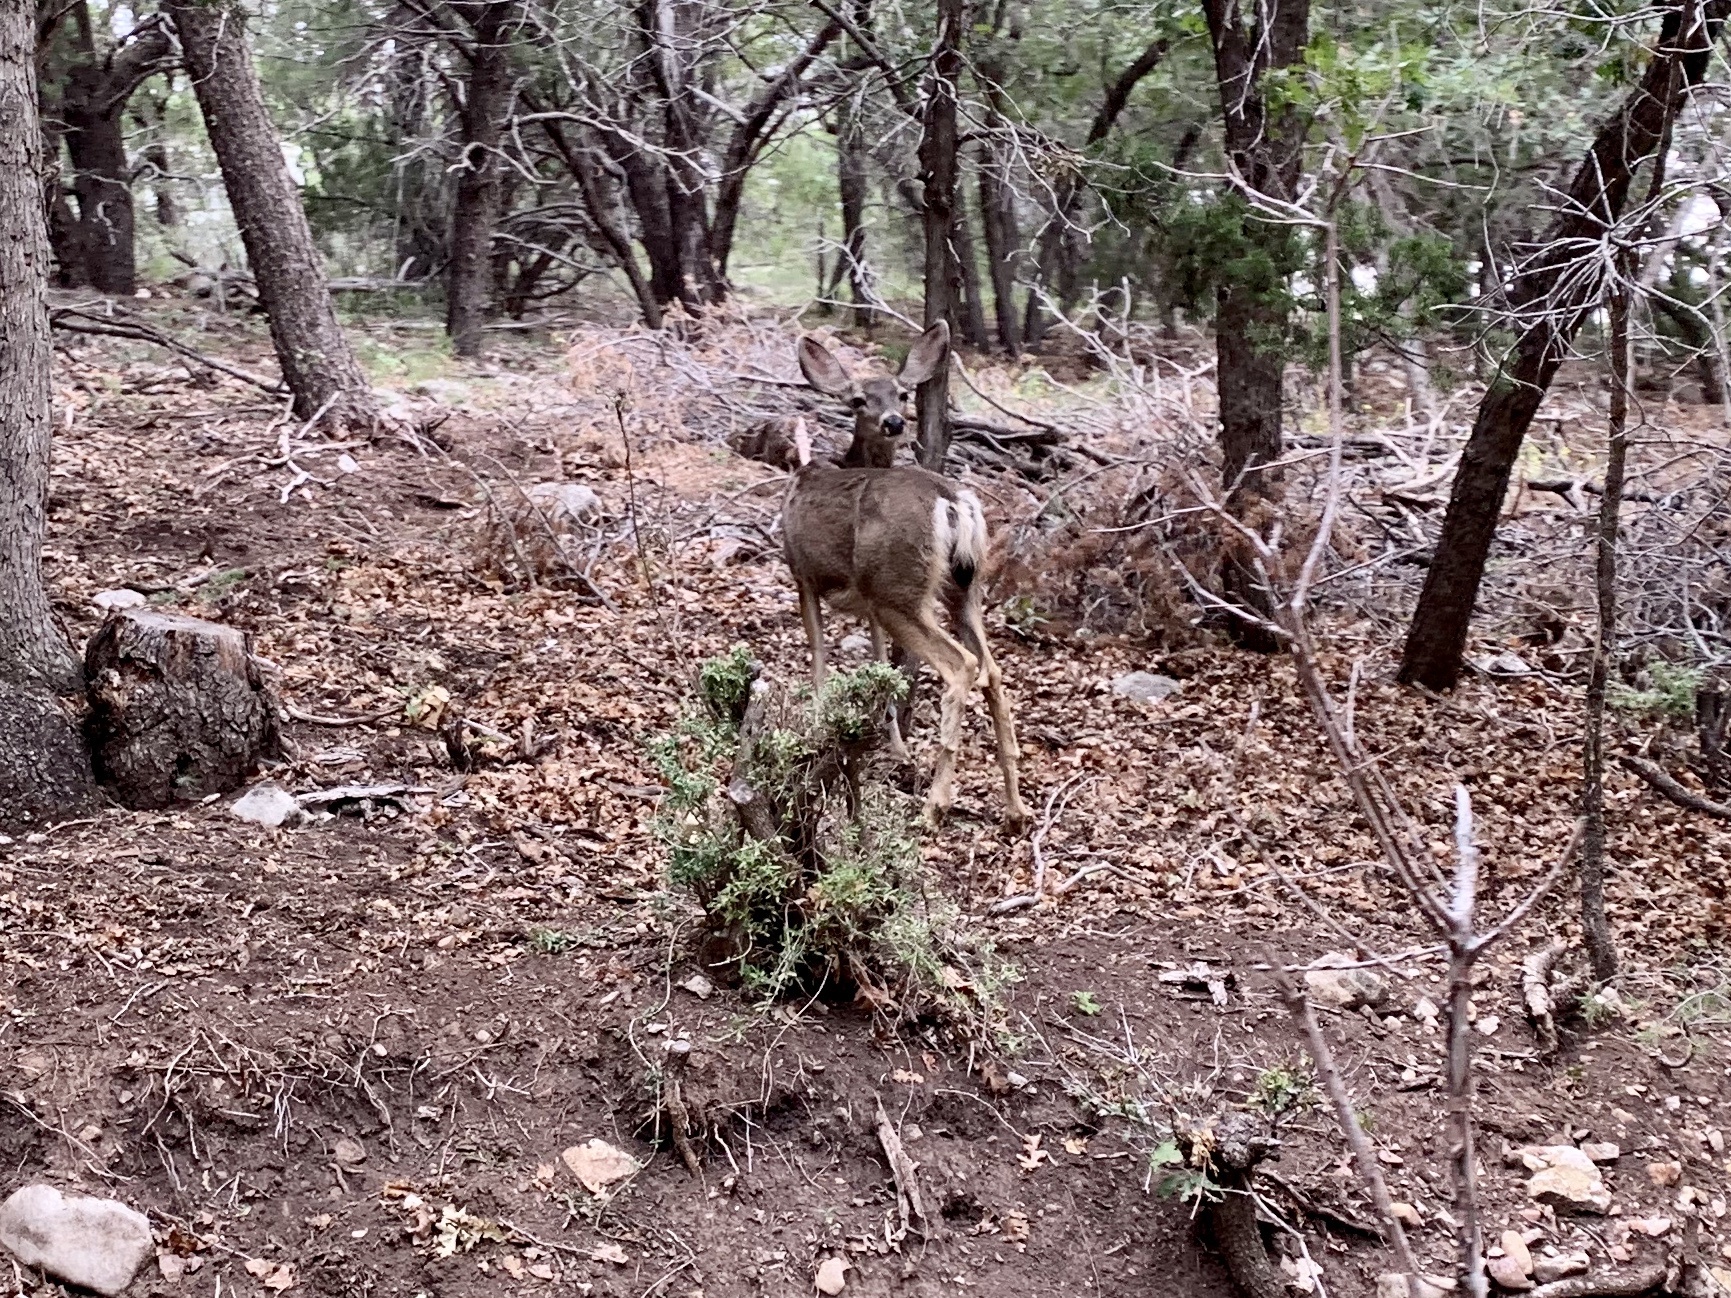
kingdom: Animalia
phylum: Chordata
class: Mammalia
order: Artiodactyla
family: Cervidae
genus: Odocoileus
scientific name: Odocoileus hemionus
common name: Mule deer
